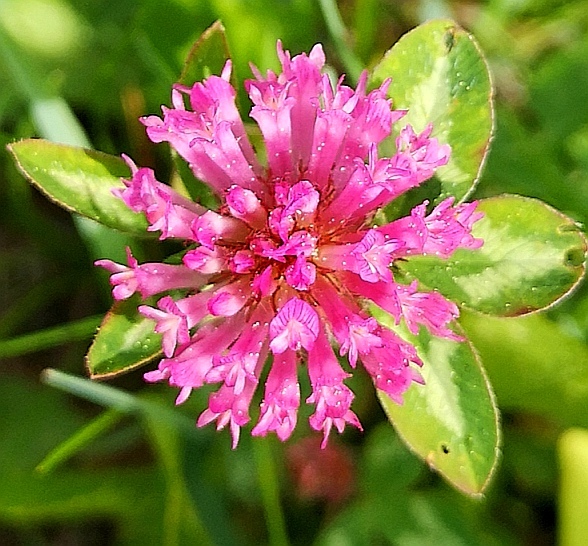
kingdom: Plantae
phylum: Tracheophyta
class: Magnoliopsida
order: Fabales
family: Fabaceae
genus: Trifolium
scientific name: Trifolium pratense
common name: Red clover
